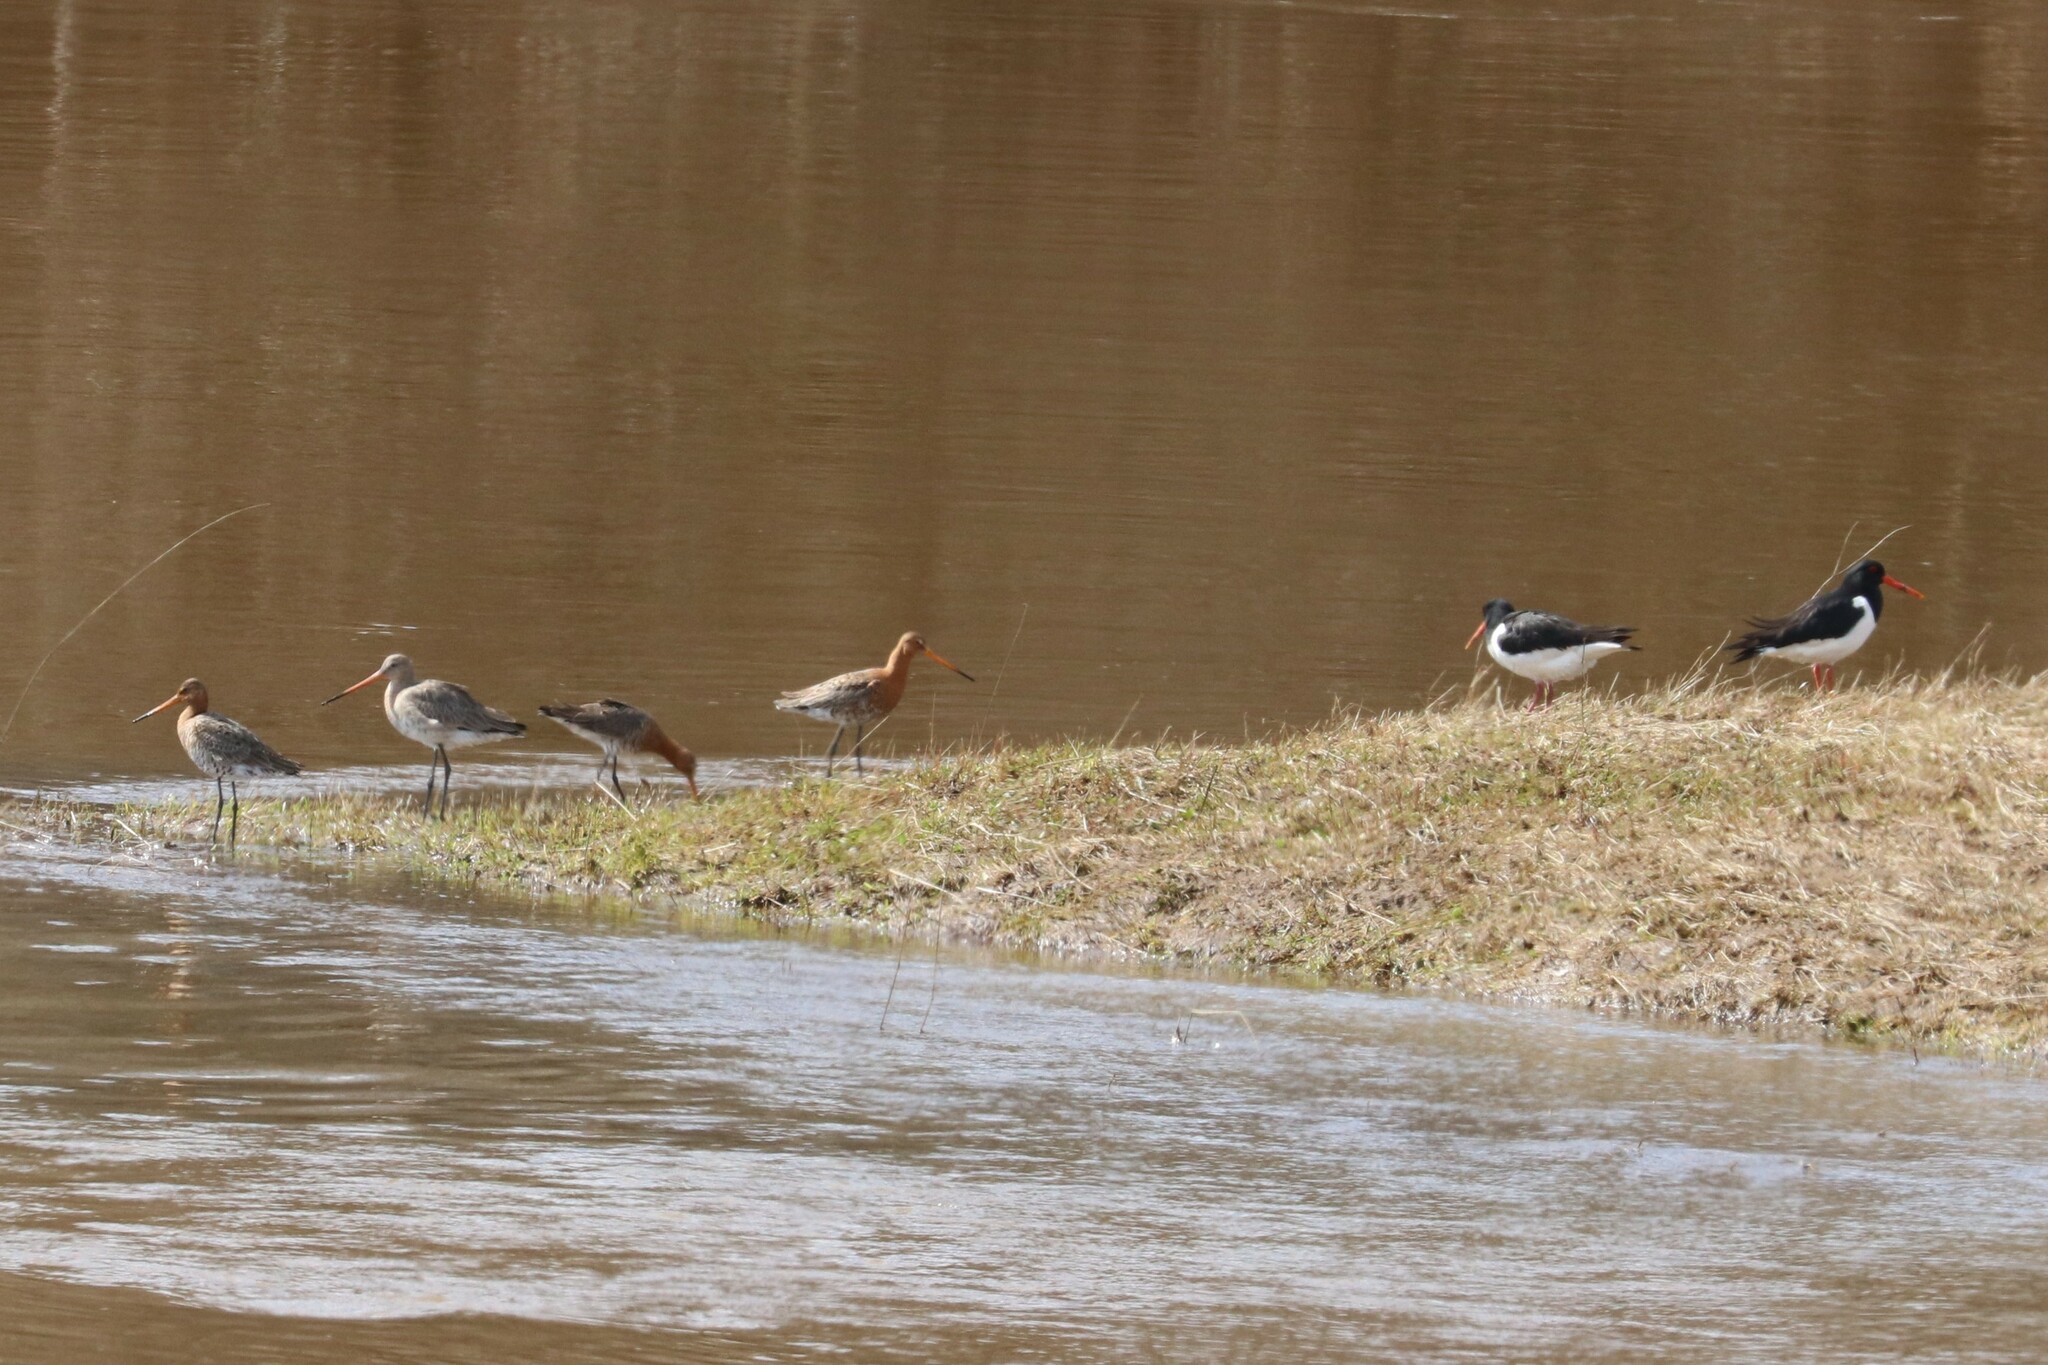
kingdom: Animalia
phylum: Chordata
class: Aves
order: Charadriiformes
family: Scolopacidae
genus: Limosa
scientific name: Limosa limosa
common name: Black-tailed godwit
